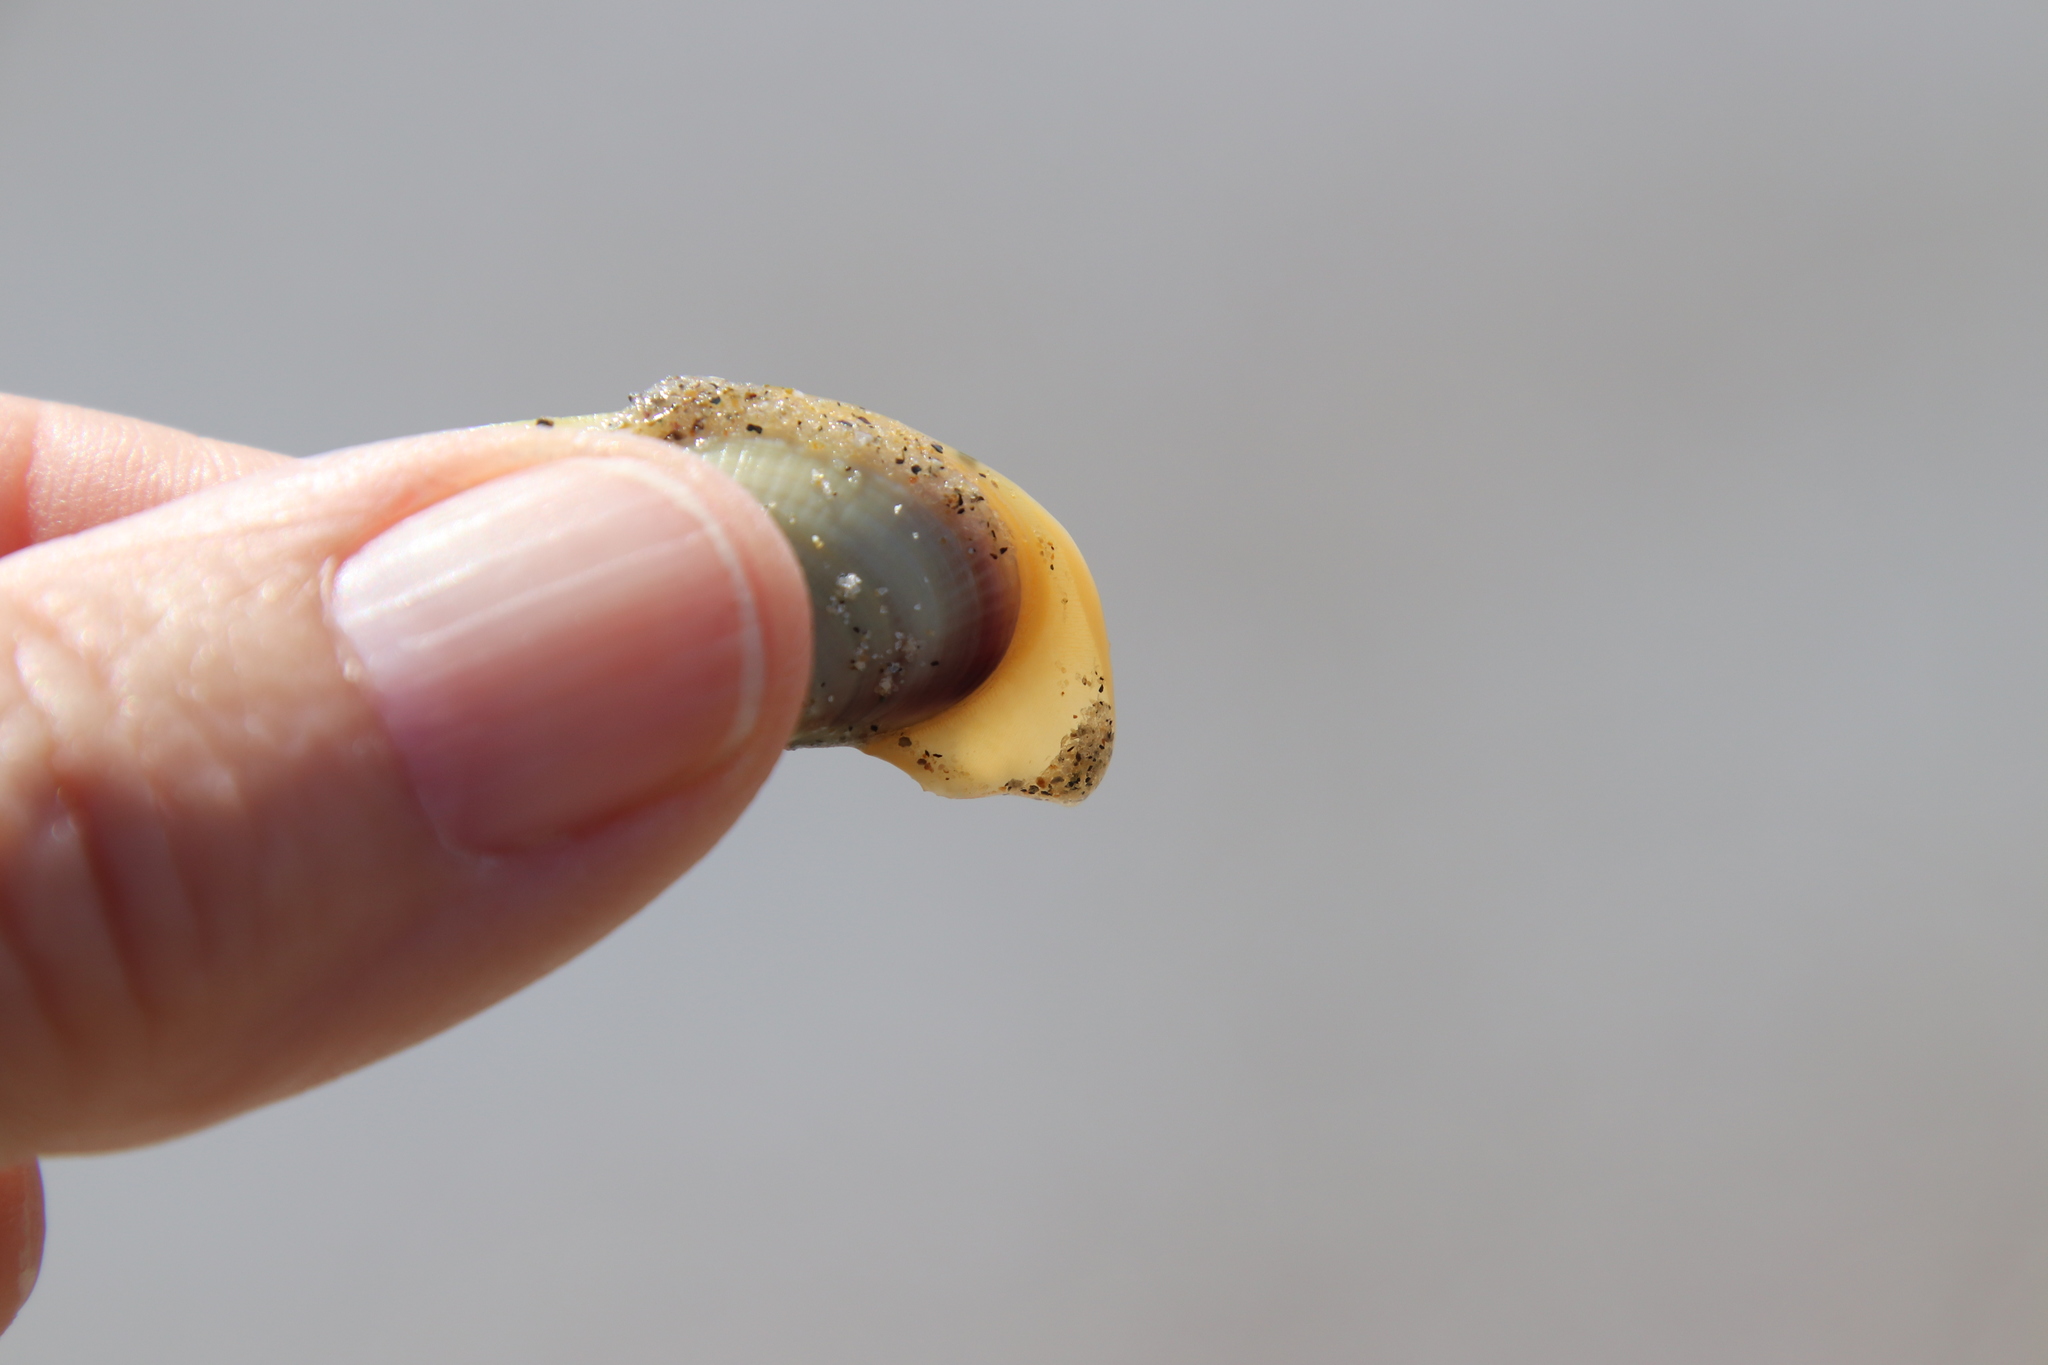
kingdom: Animalia
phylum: Mollusca
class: Bivalvia
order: Cardiida
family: Donacidae
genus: Donax
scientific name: Donax gouldii
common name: Gould beanclam
